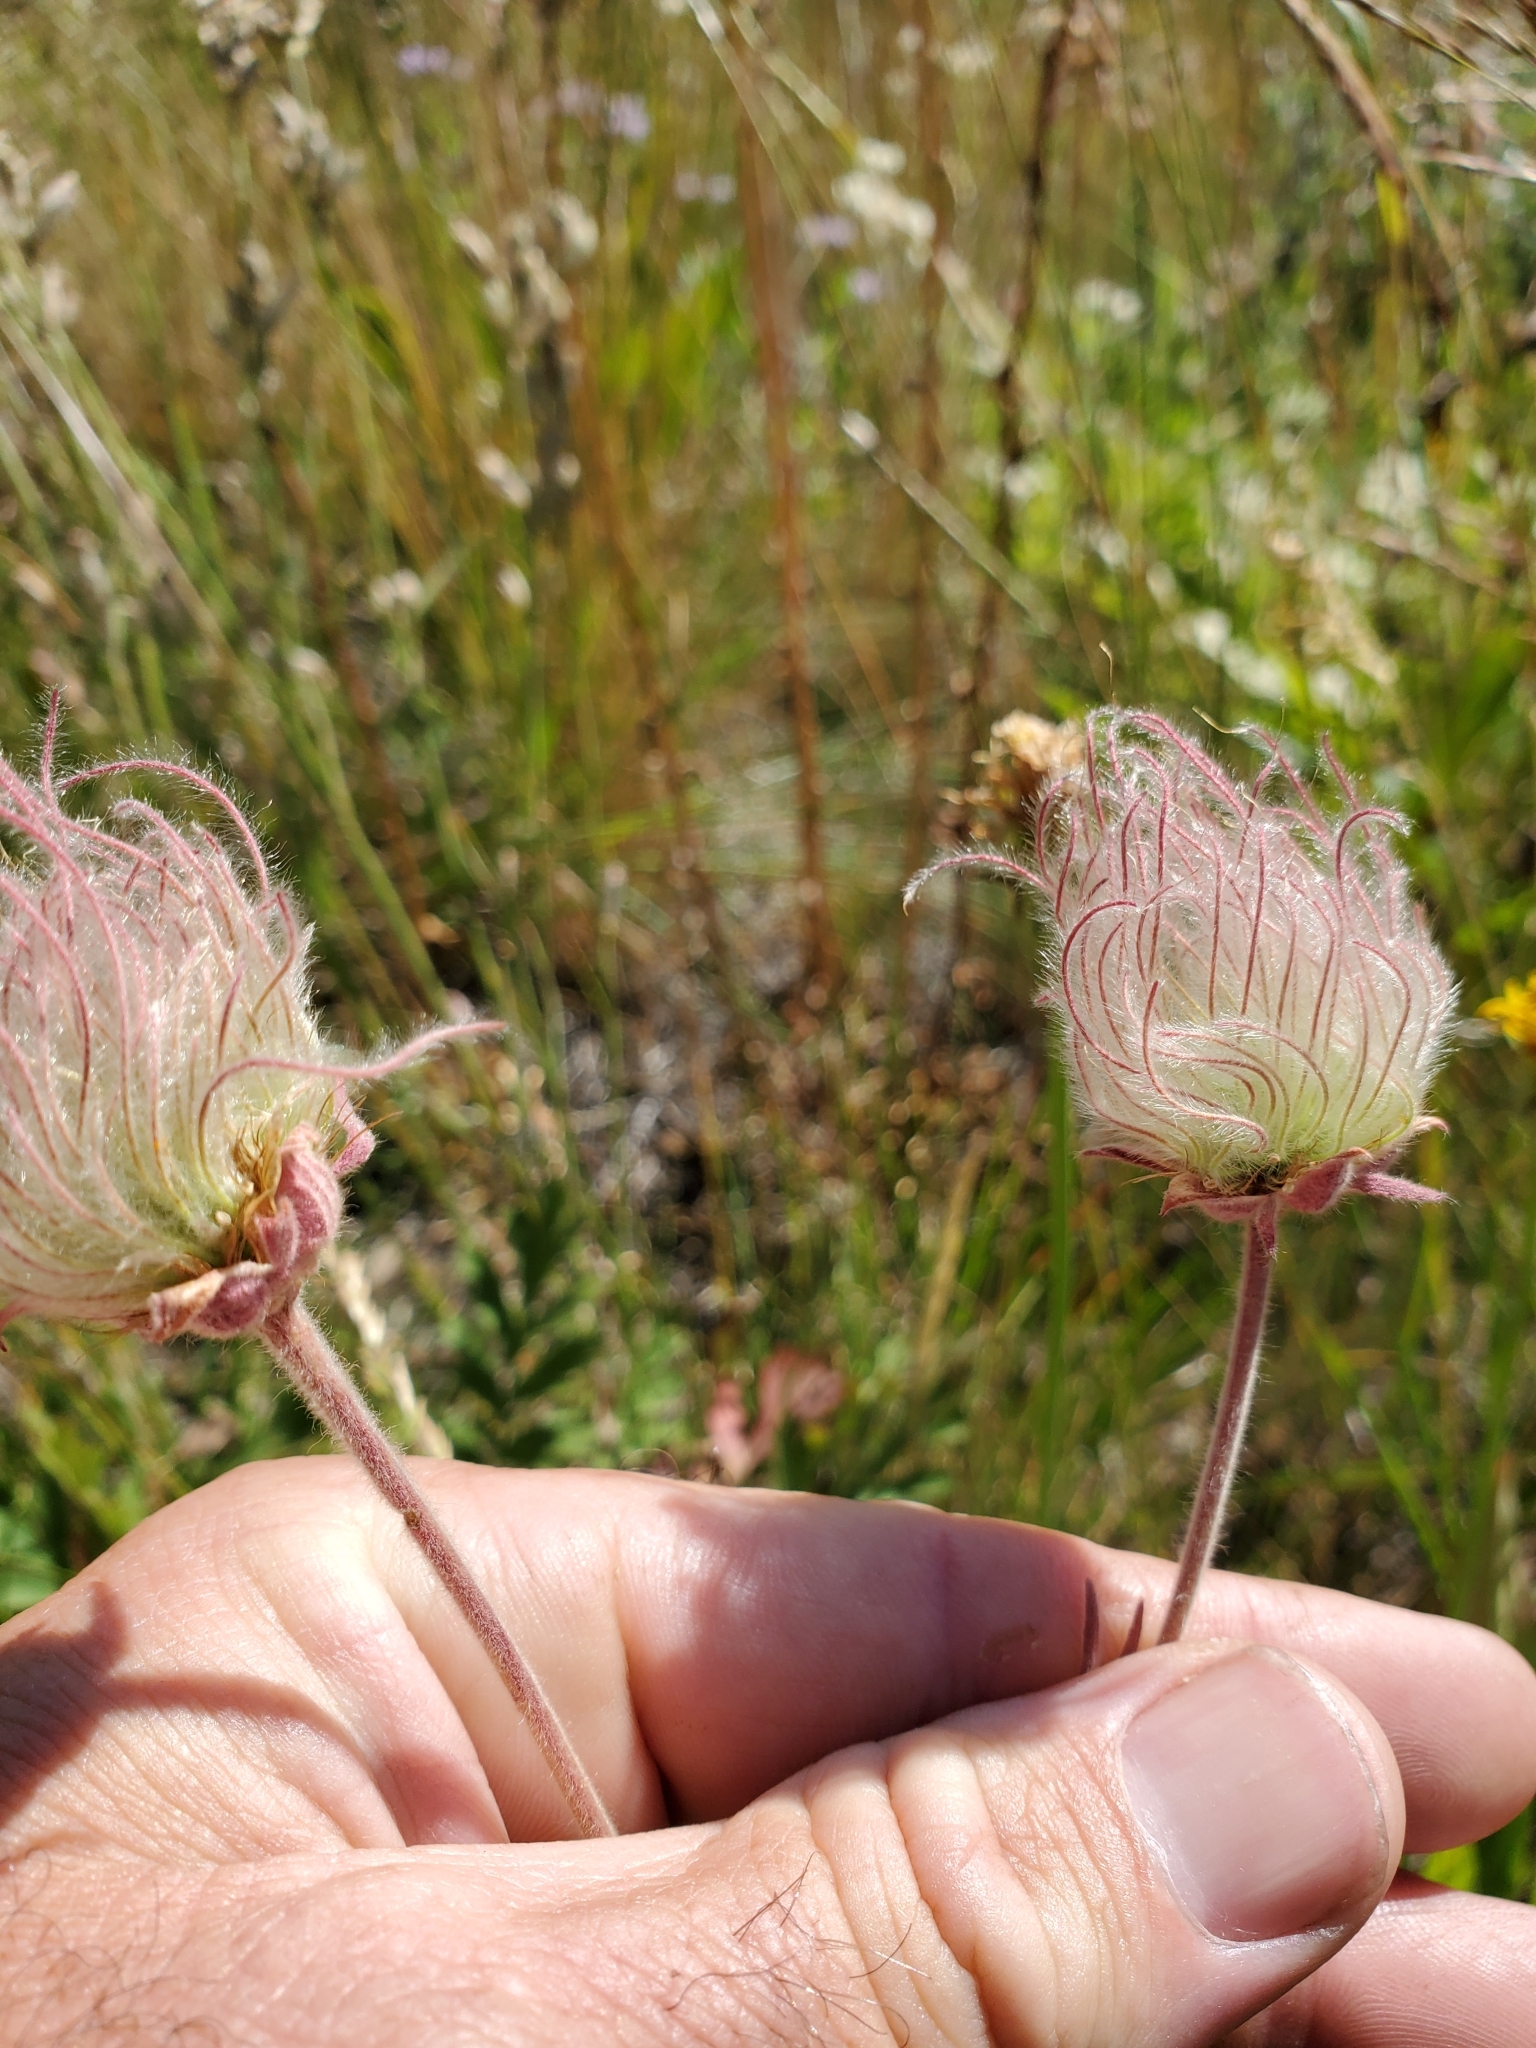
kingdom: Plantae
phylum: Tracheophyta
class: Magnoliopsida
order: Rosales
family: Rosaceae
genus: Geum
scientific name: Geum triflorum
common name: Old man's whiskers
